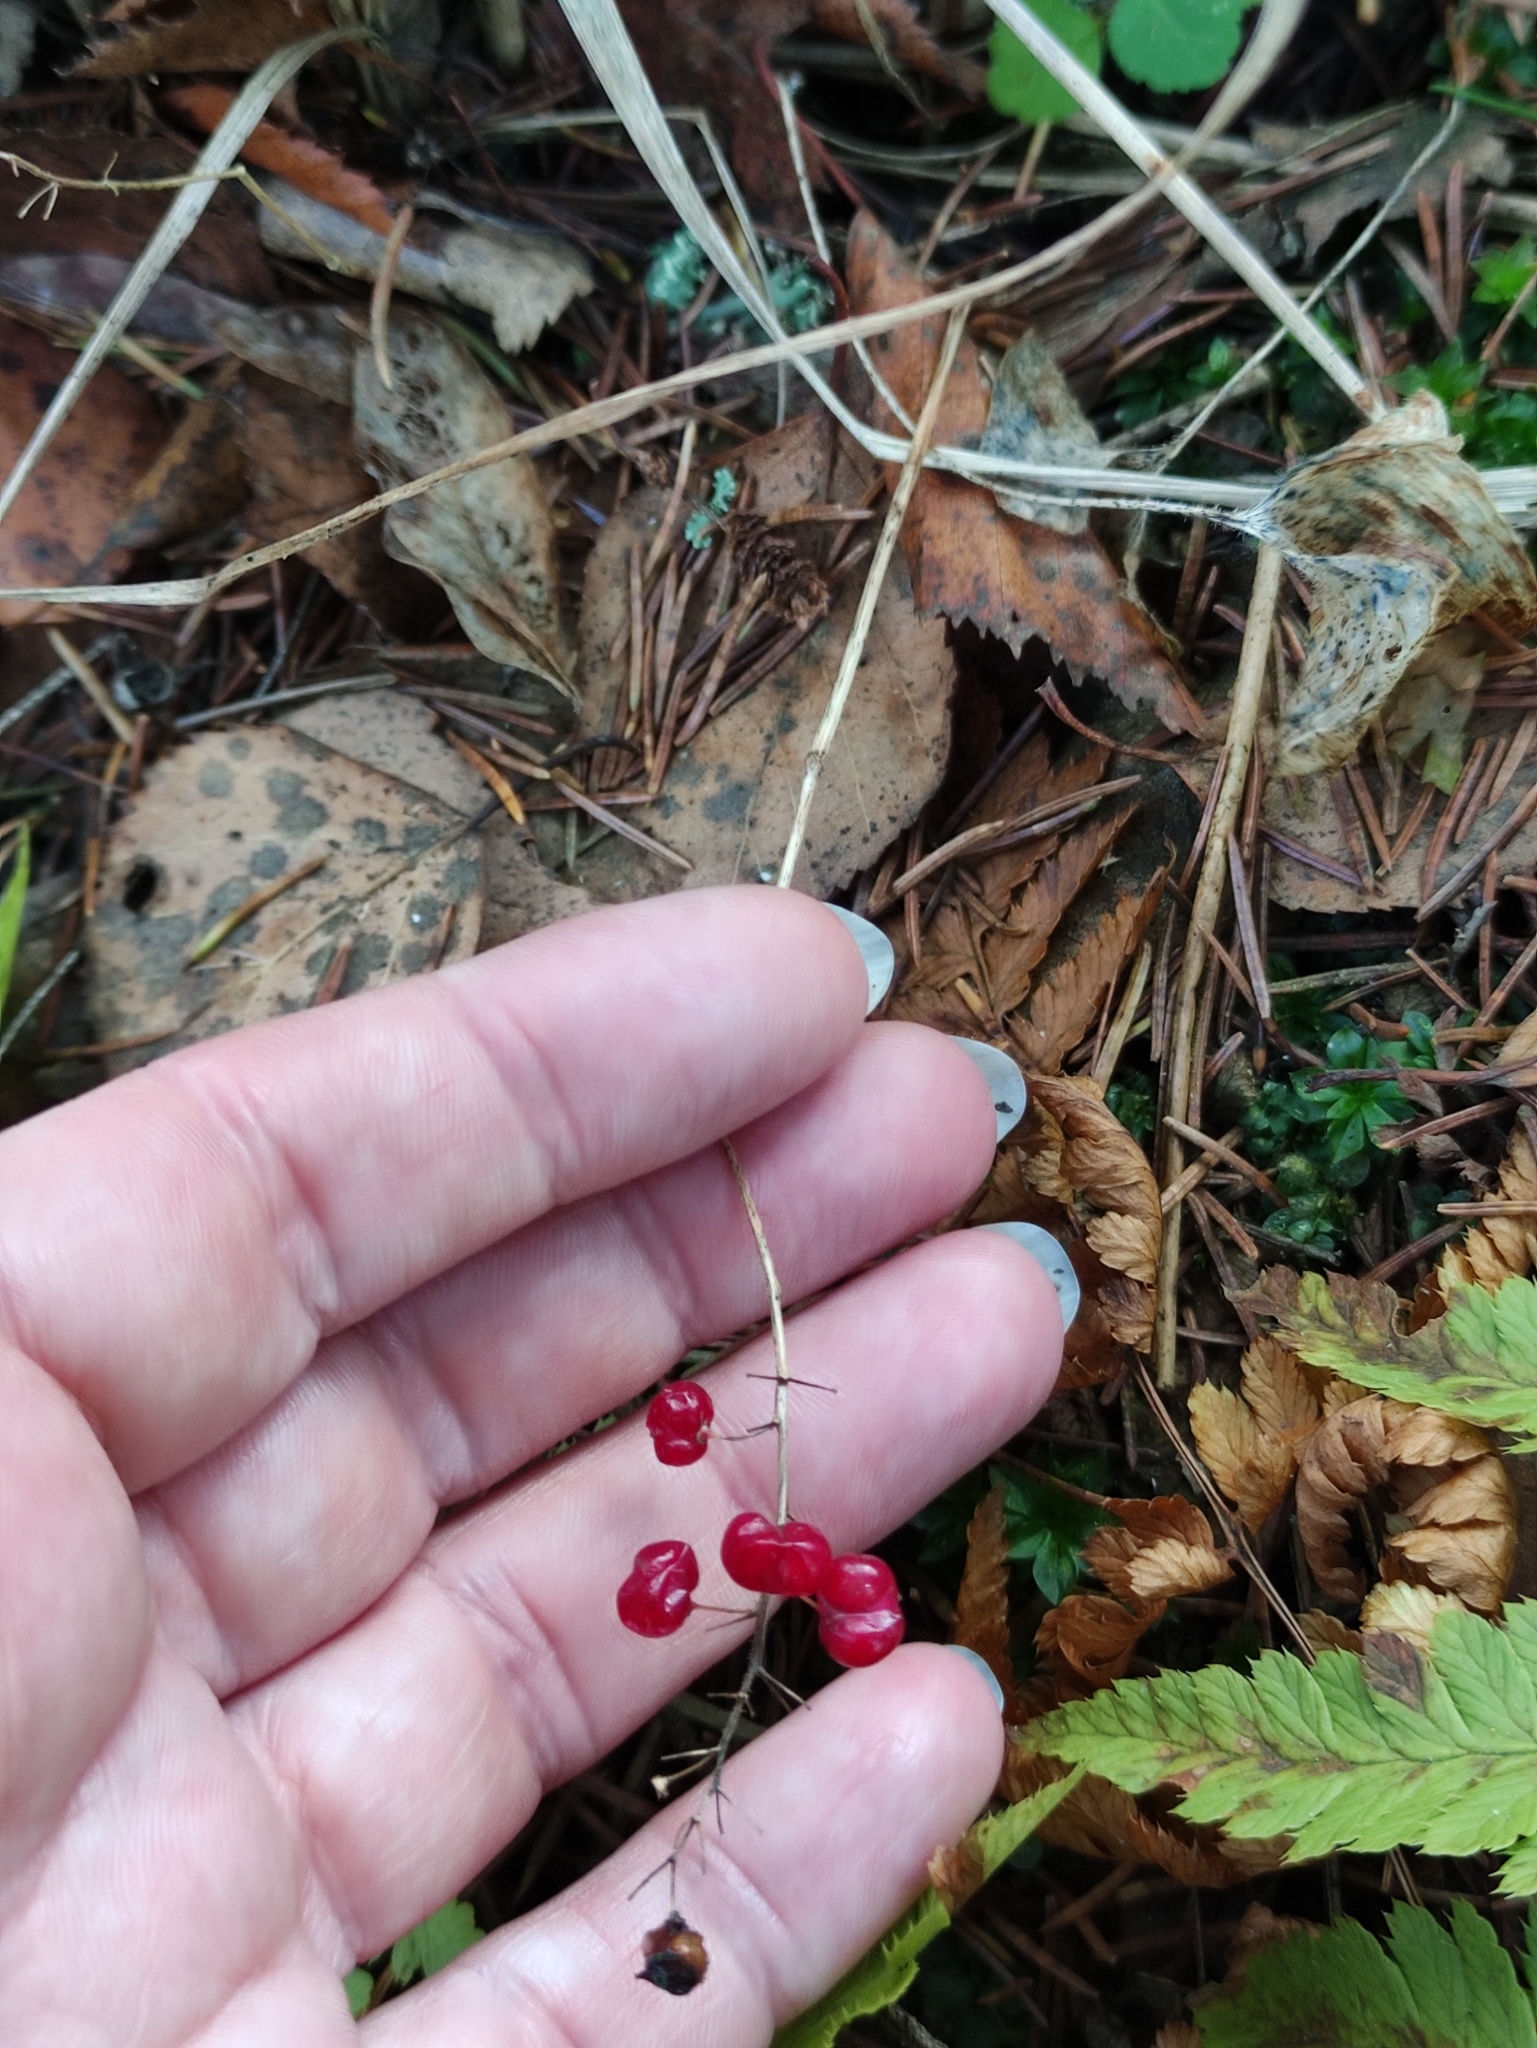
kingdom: Plantae
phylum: Tracheophyta
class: Liliopsida
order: Asparagales
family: Asparagaceae
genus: Maianthemum
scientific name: Maianthemum bifolium
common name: May lily
